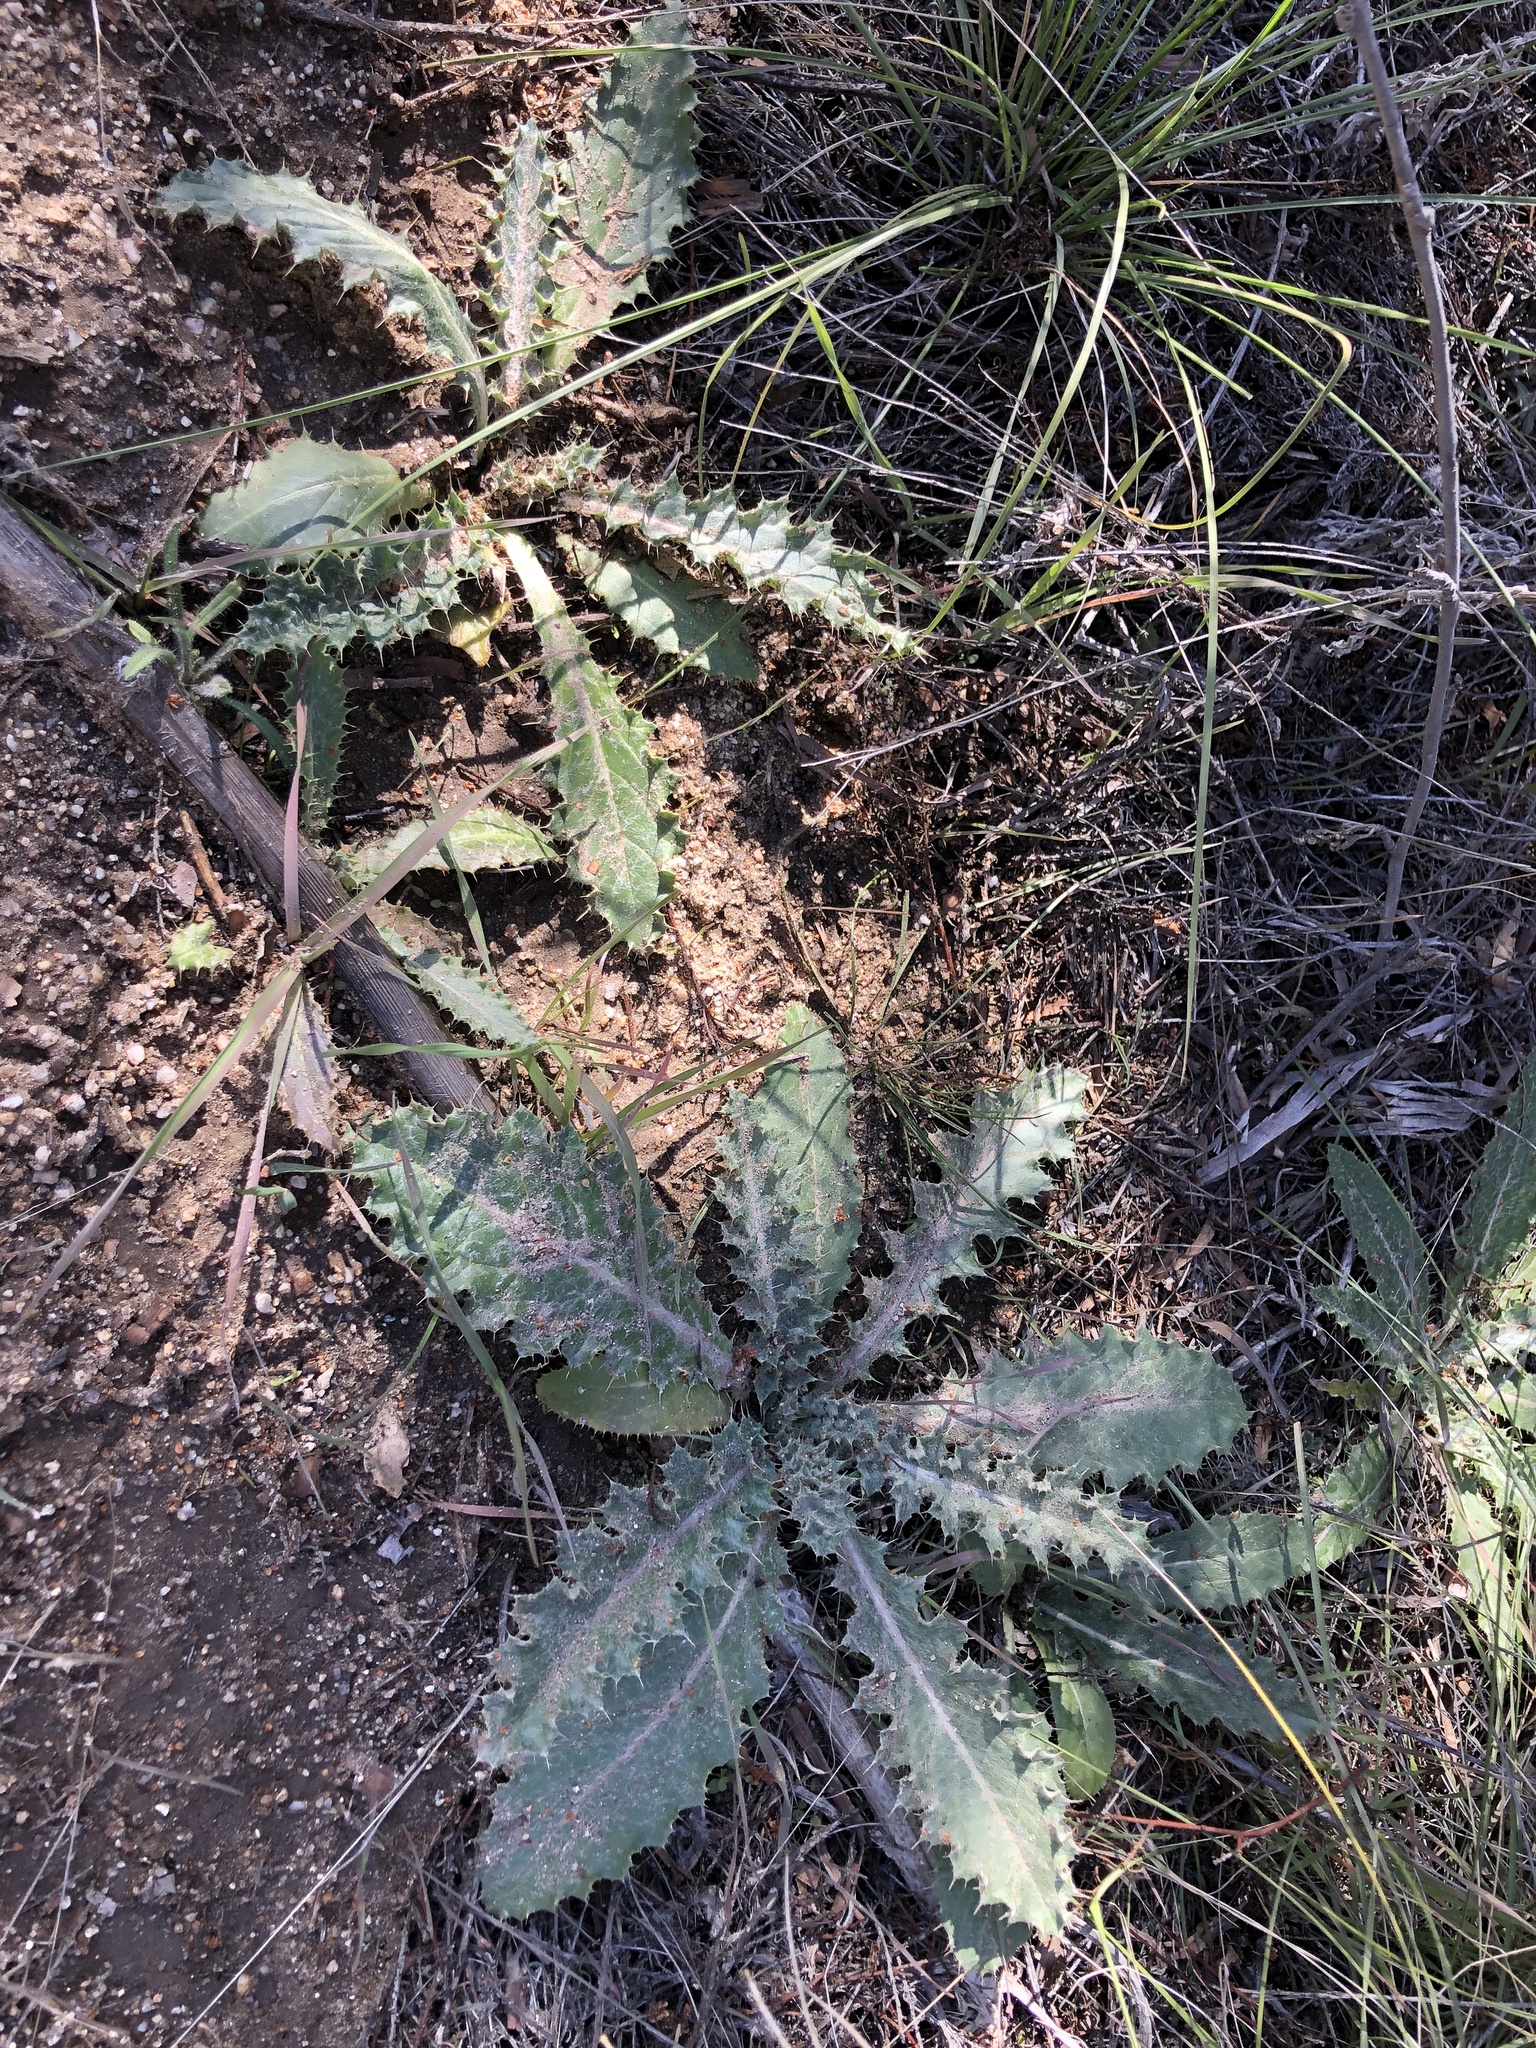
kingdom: Plantae
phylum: Tracheophyta
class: Magnoliopsida
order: Asterales
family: Asteraceae
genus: Cirsium
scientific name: Cirsium occidentale
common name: Western thistle
